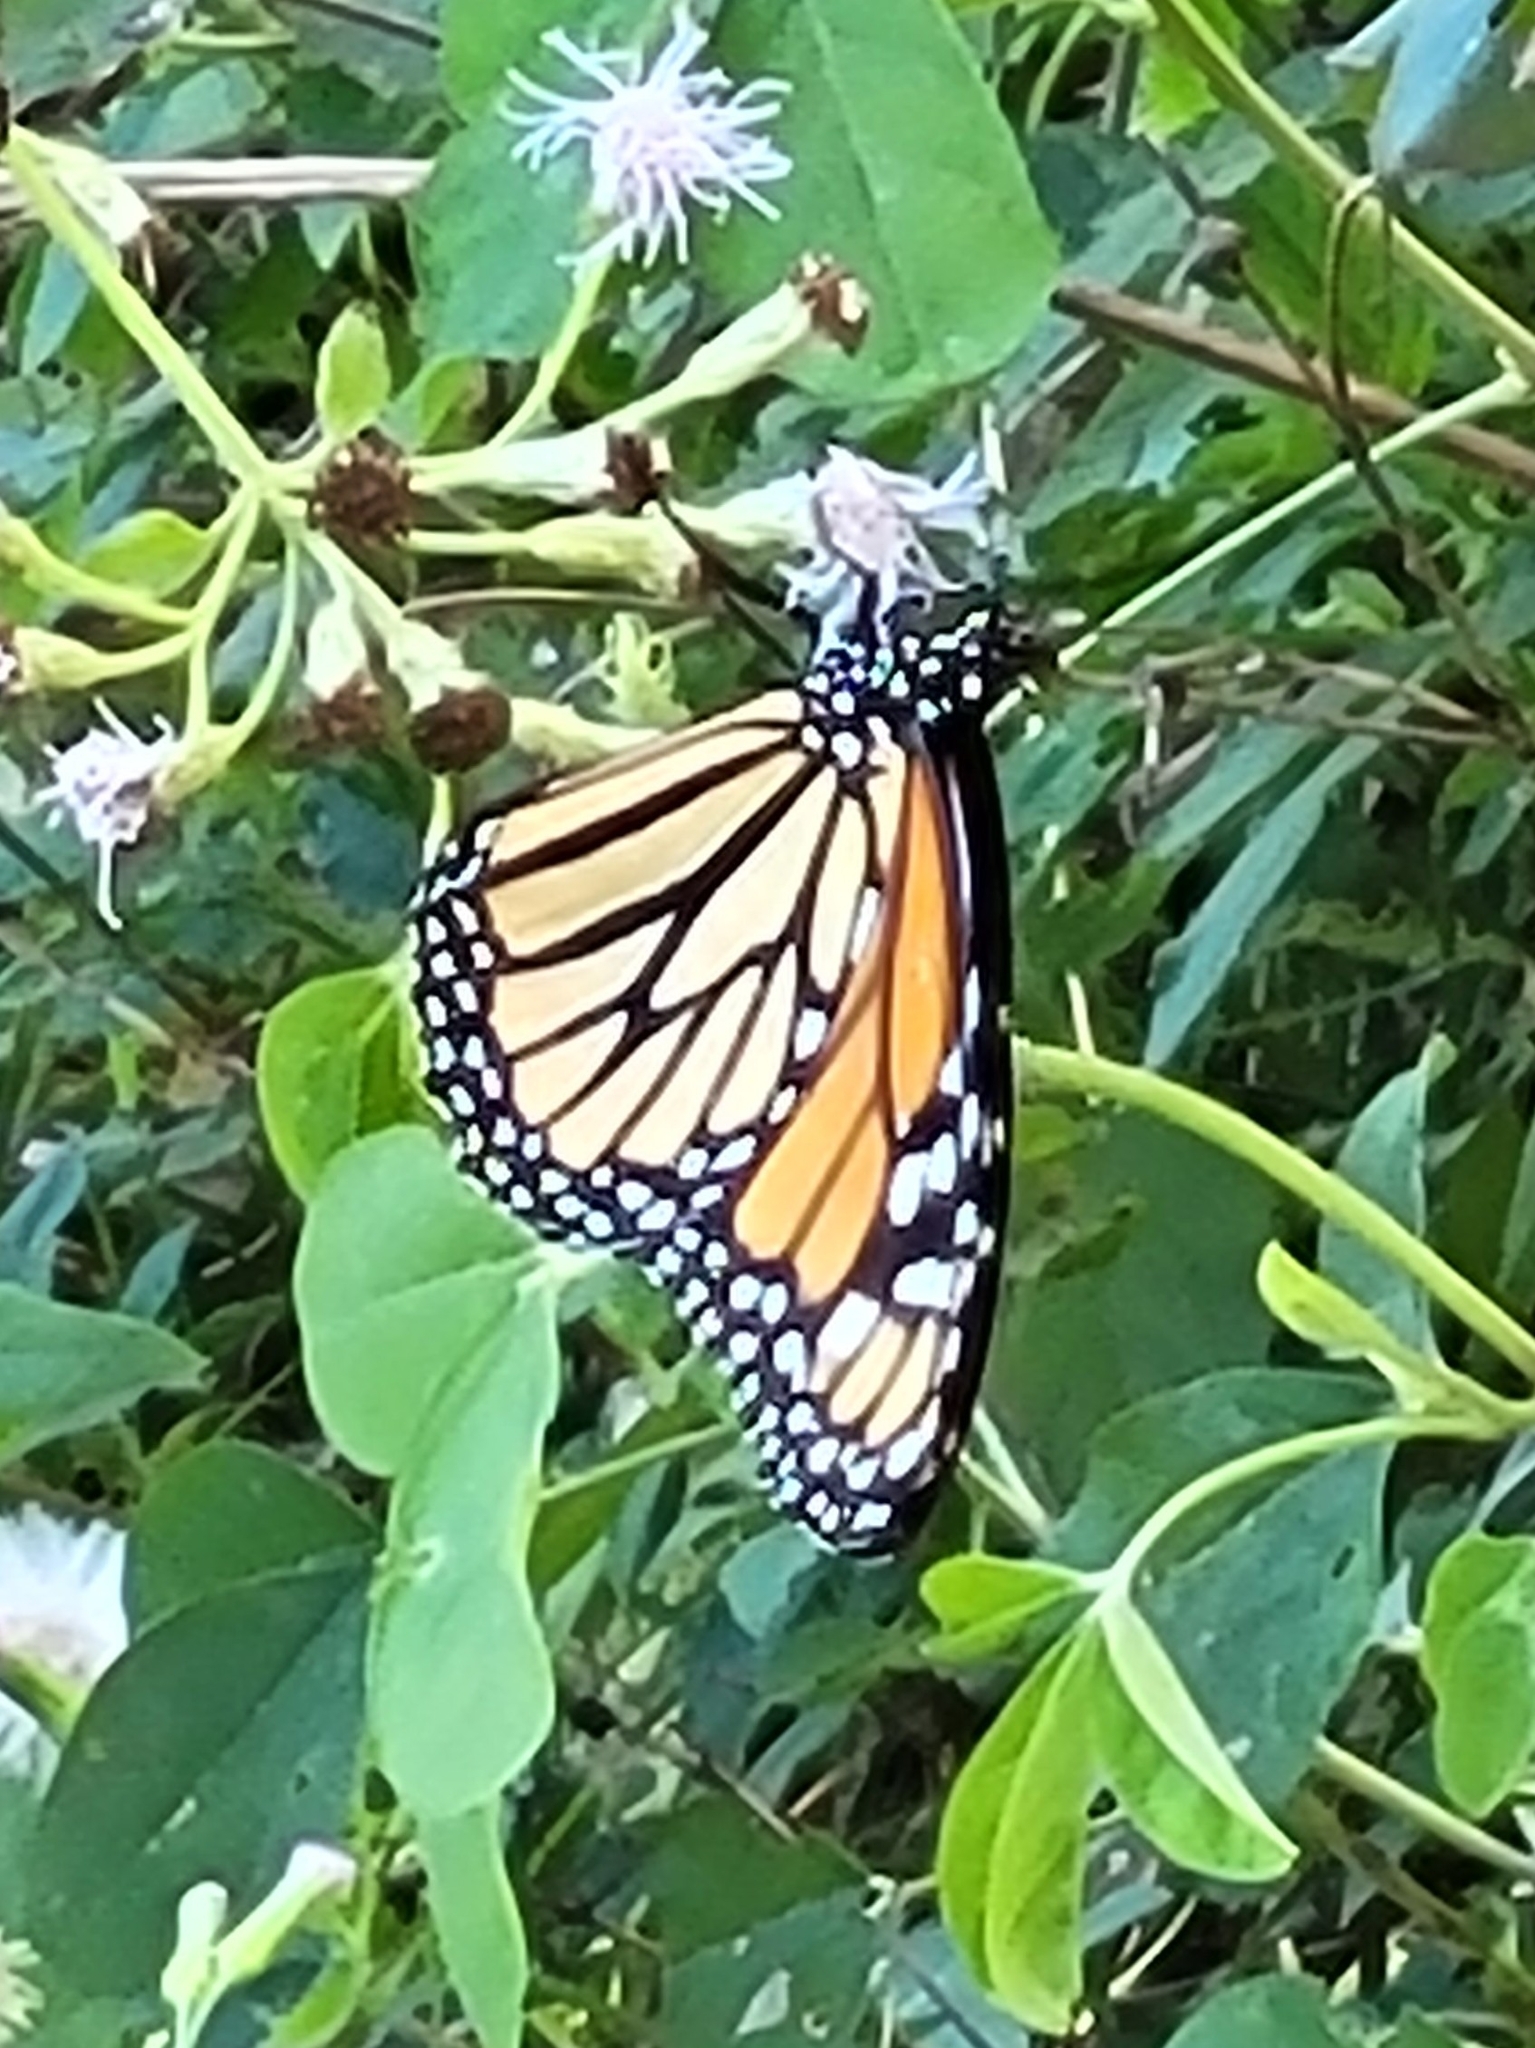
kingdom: Animalia
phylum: Arthropoda
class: Insecta
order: Lepidoptera
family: Nymphalidae
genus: Danaus
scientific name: Danaus plexippus
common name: Monarch
